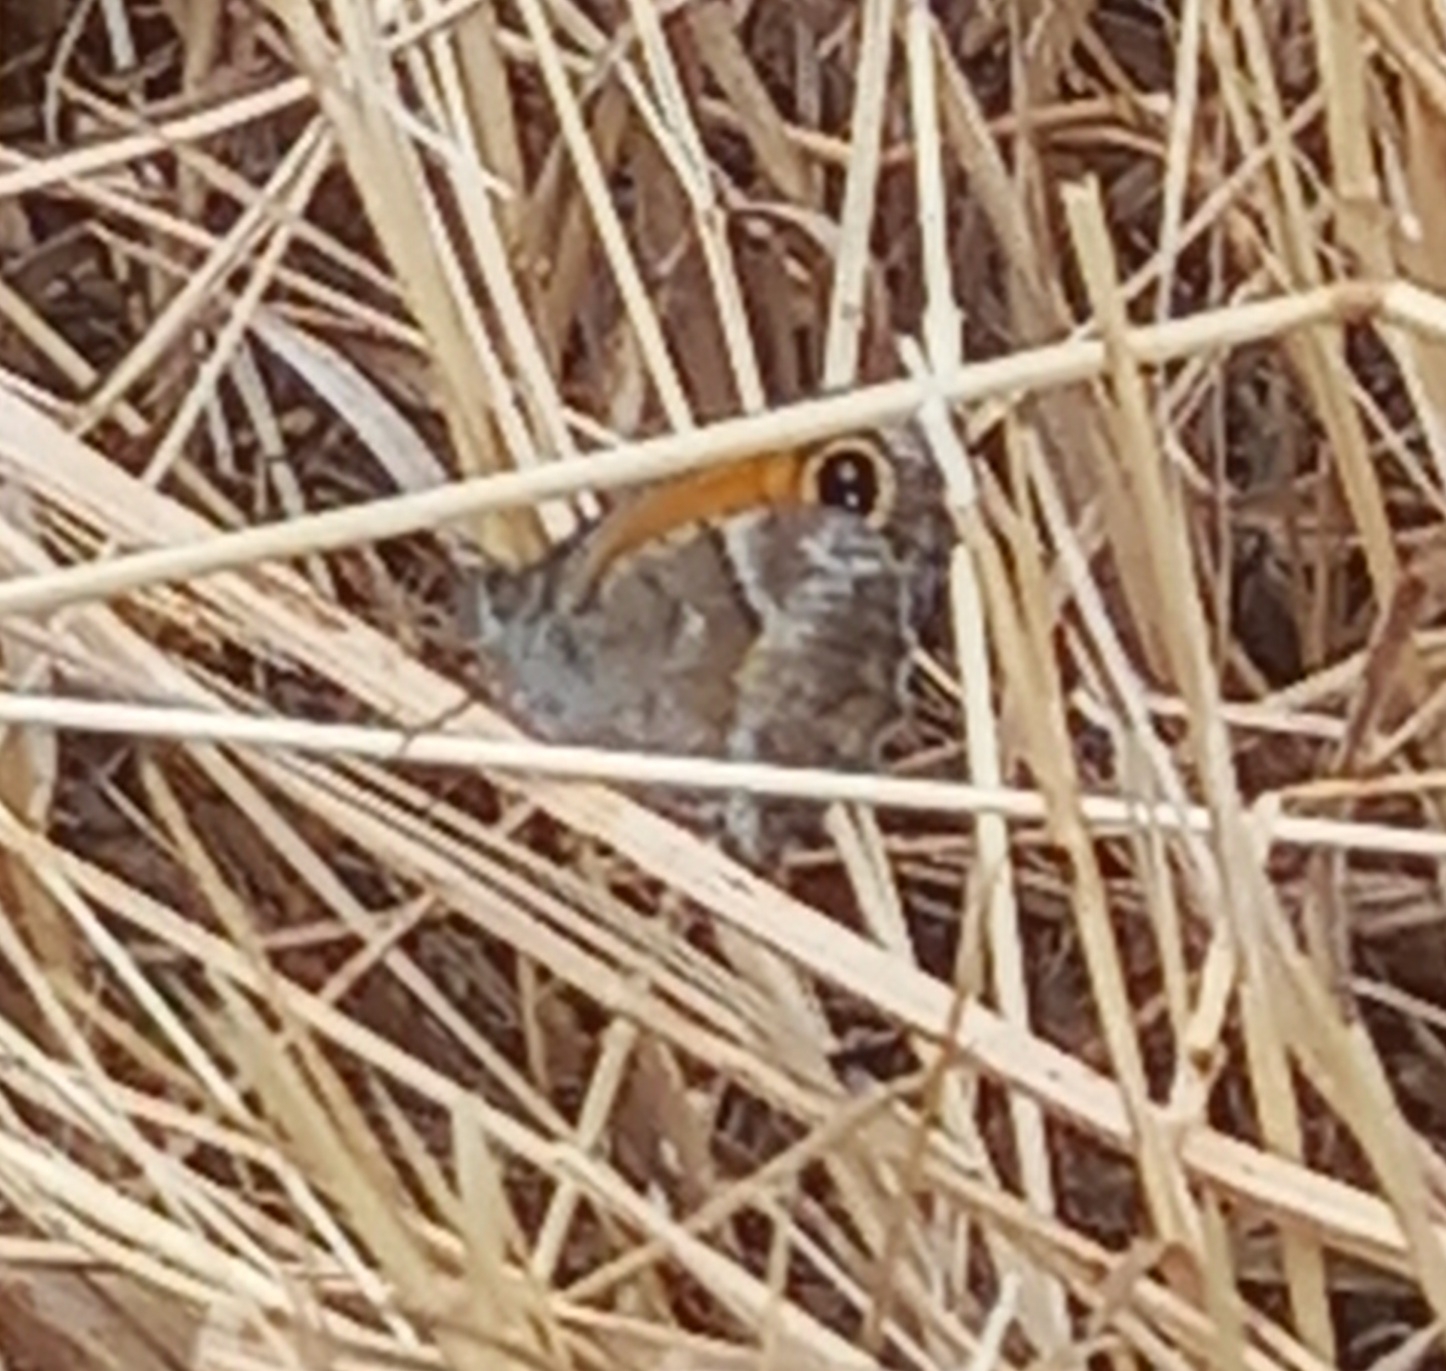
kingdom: Animalia
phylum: Arthropoda
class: Insecta
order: Lepidoptera
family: Nymphalidae
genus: Pyronia
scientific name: Pyronia cecilia
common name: Southern gatekeeper
